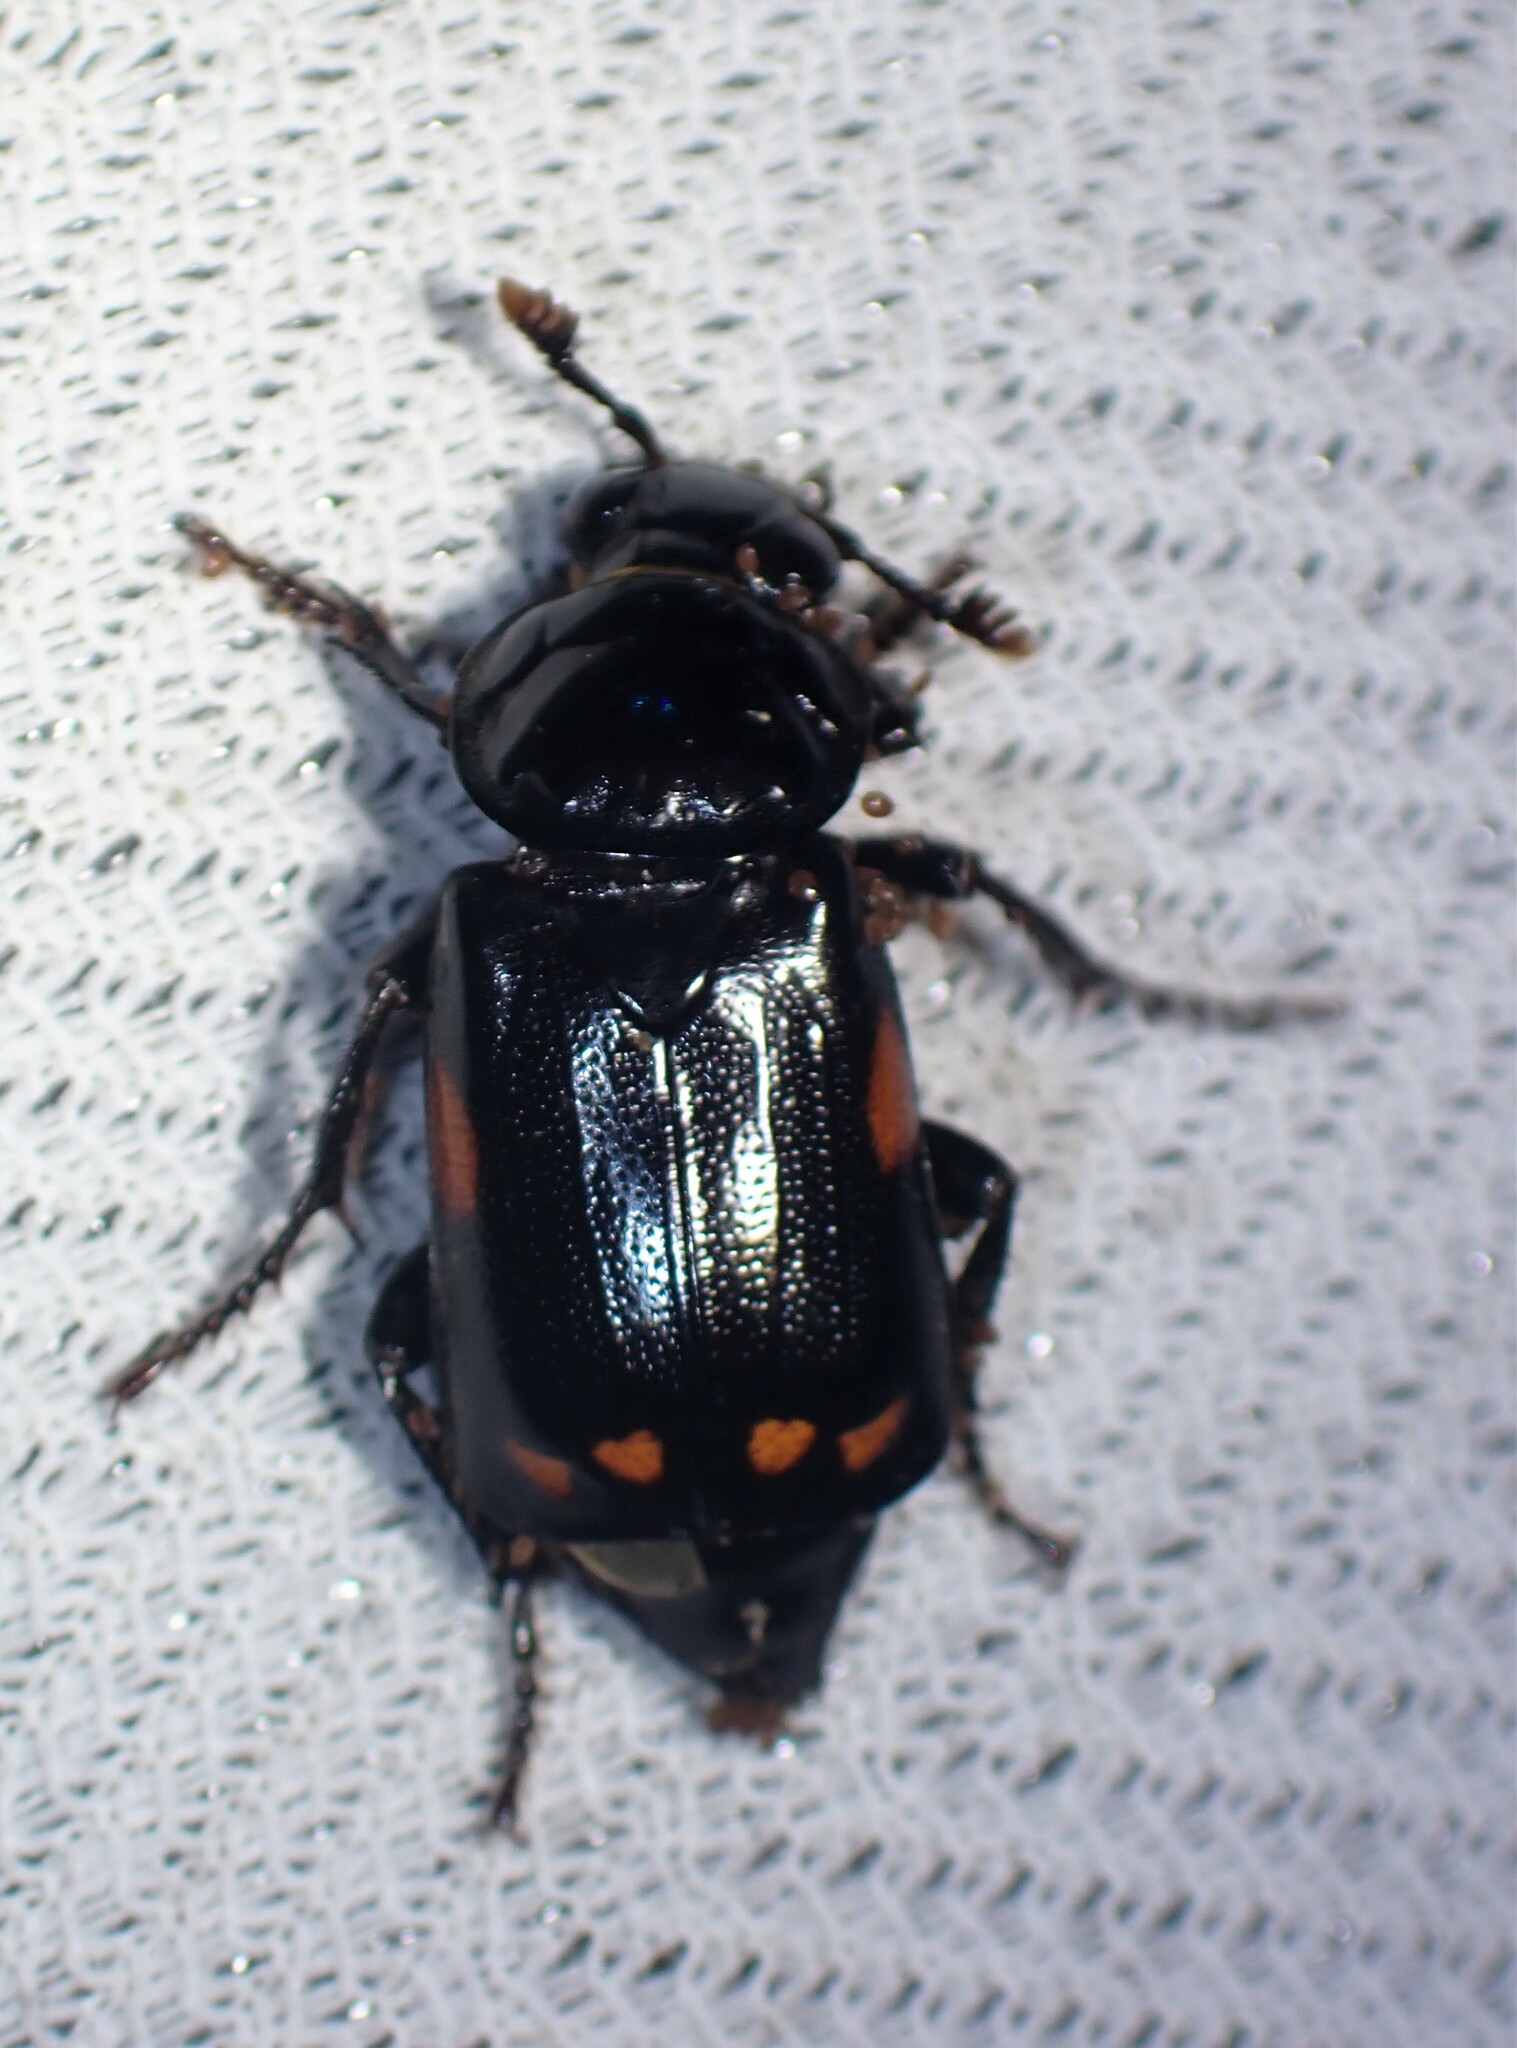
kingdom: Animalia
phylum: Arthropoda
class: Insecta
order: Coleoptera
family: Staphylinidae
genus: Nicrophorus
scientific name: Nicrophorus pustulatus
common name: Pustulated carrion beetle
